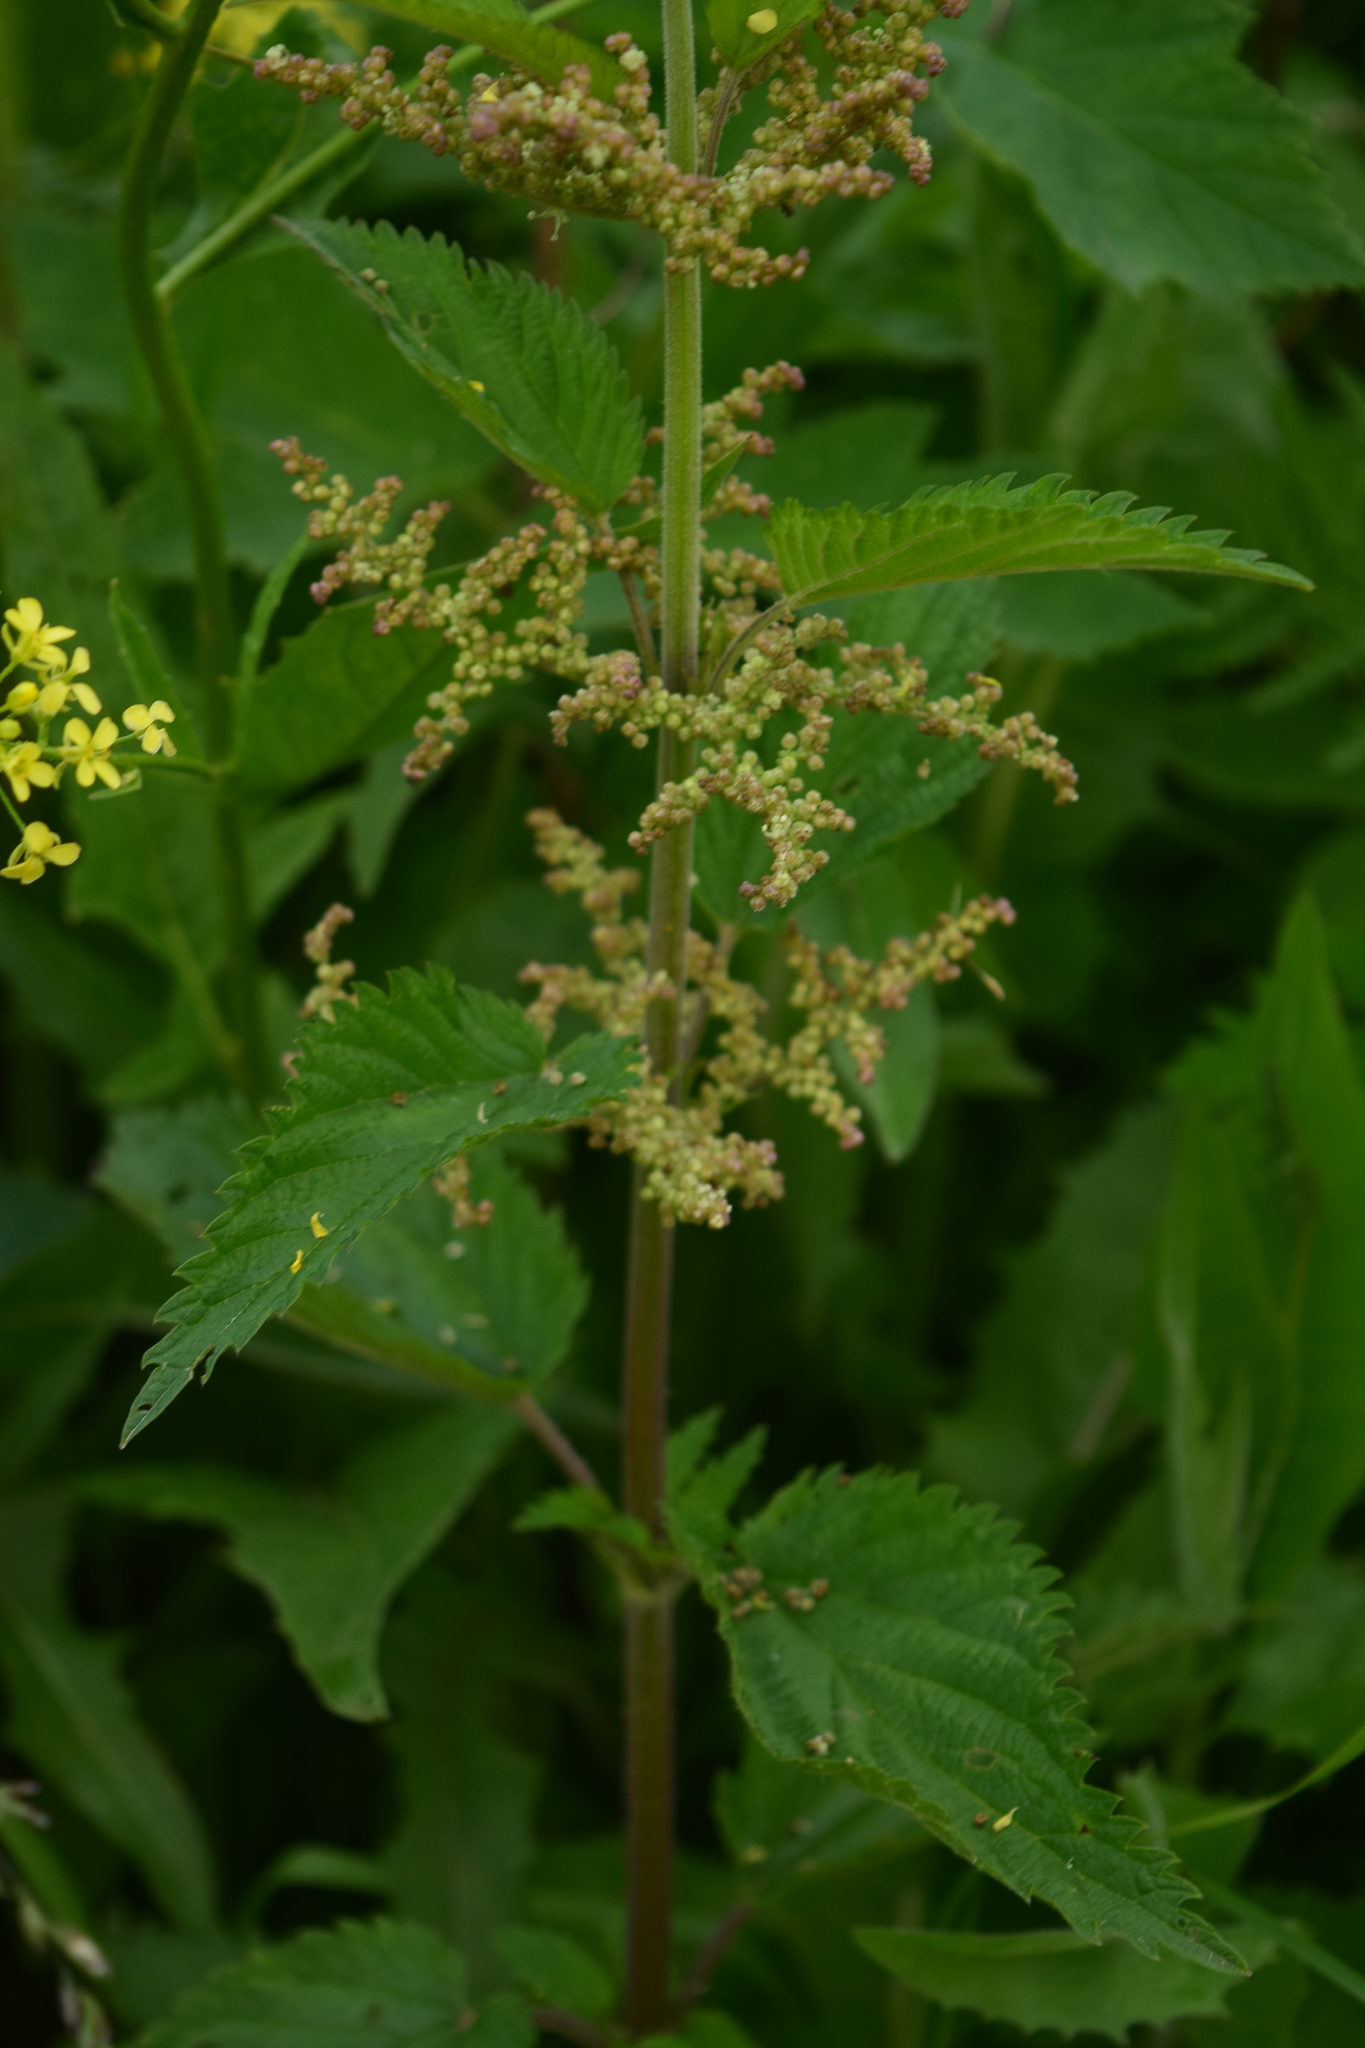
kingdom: Plantae
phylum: Tracheophyta
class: Magnoliopsida
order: Rosales
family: Urticaceae
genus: Urtica
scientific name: Urtica dioica
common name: Common nettle
